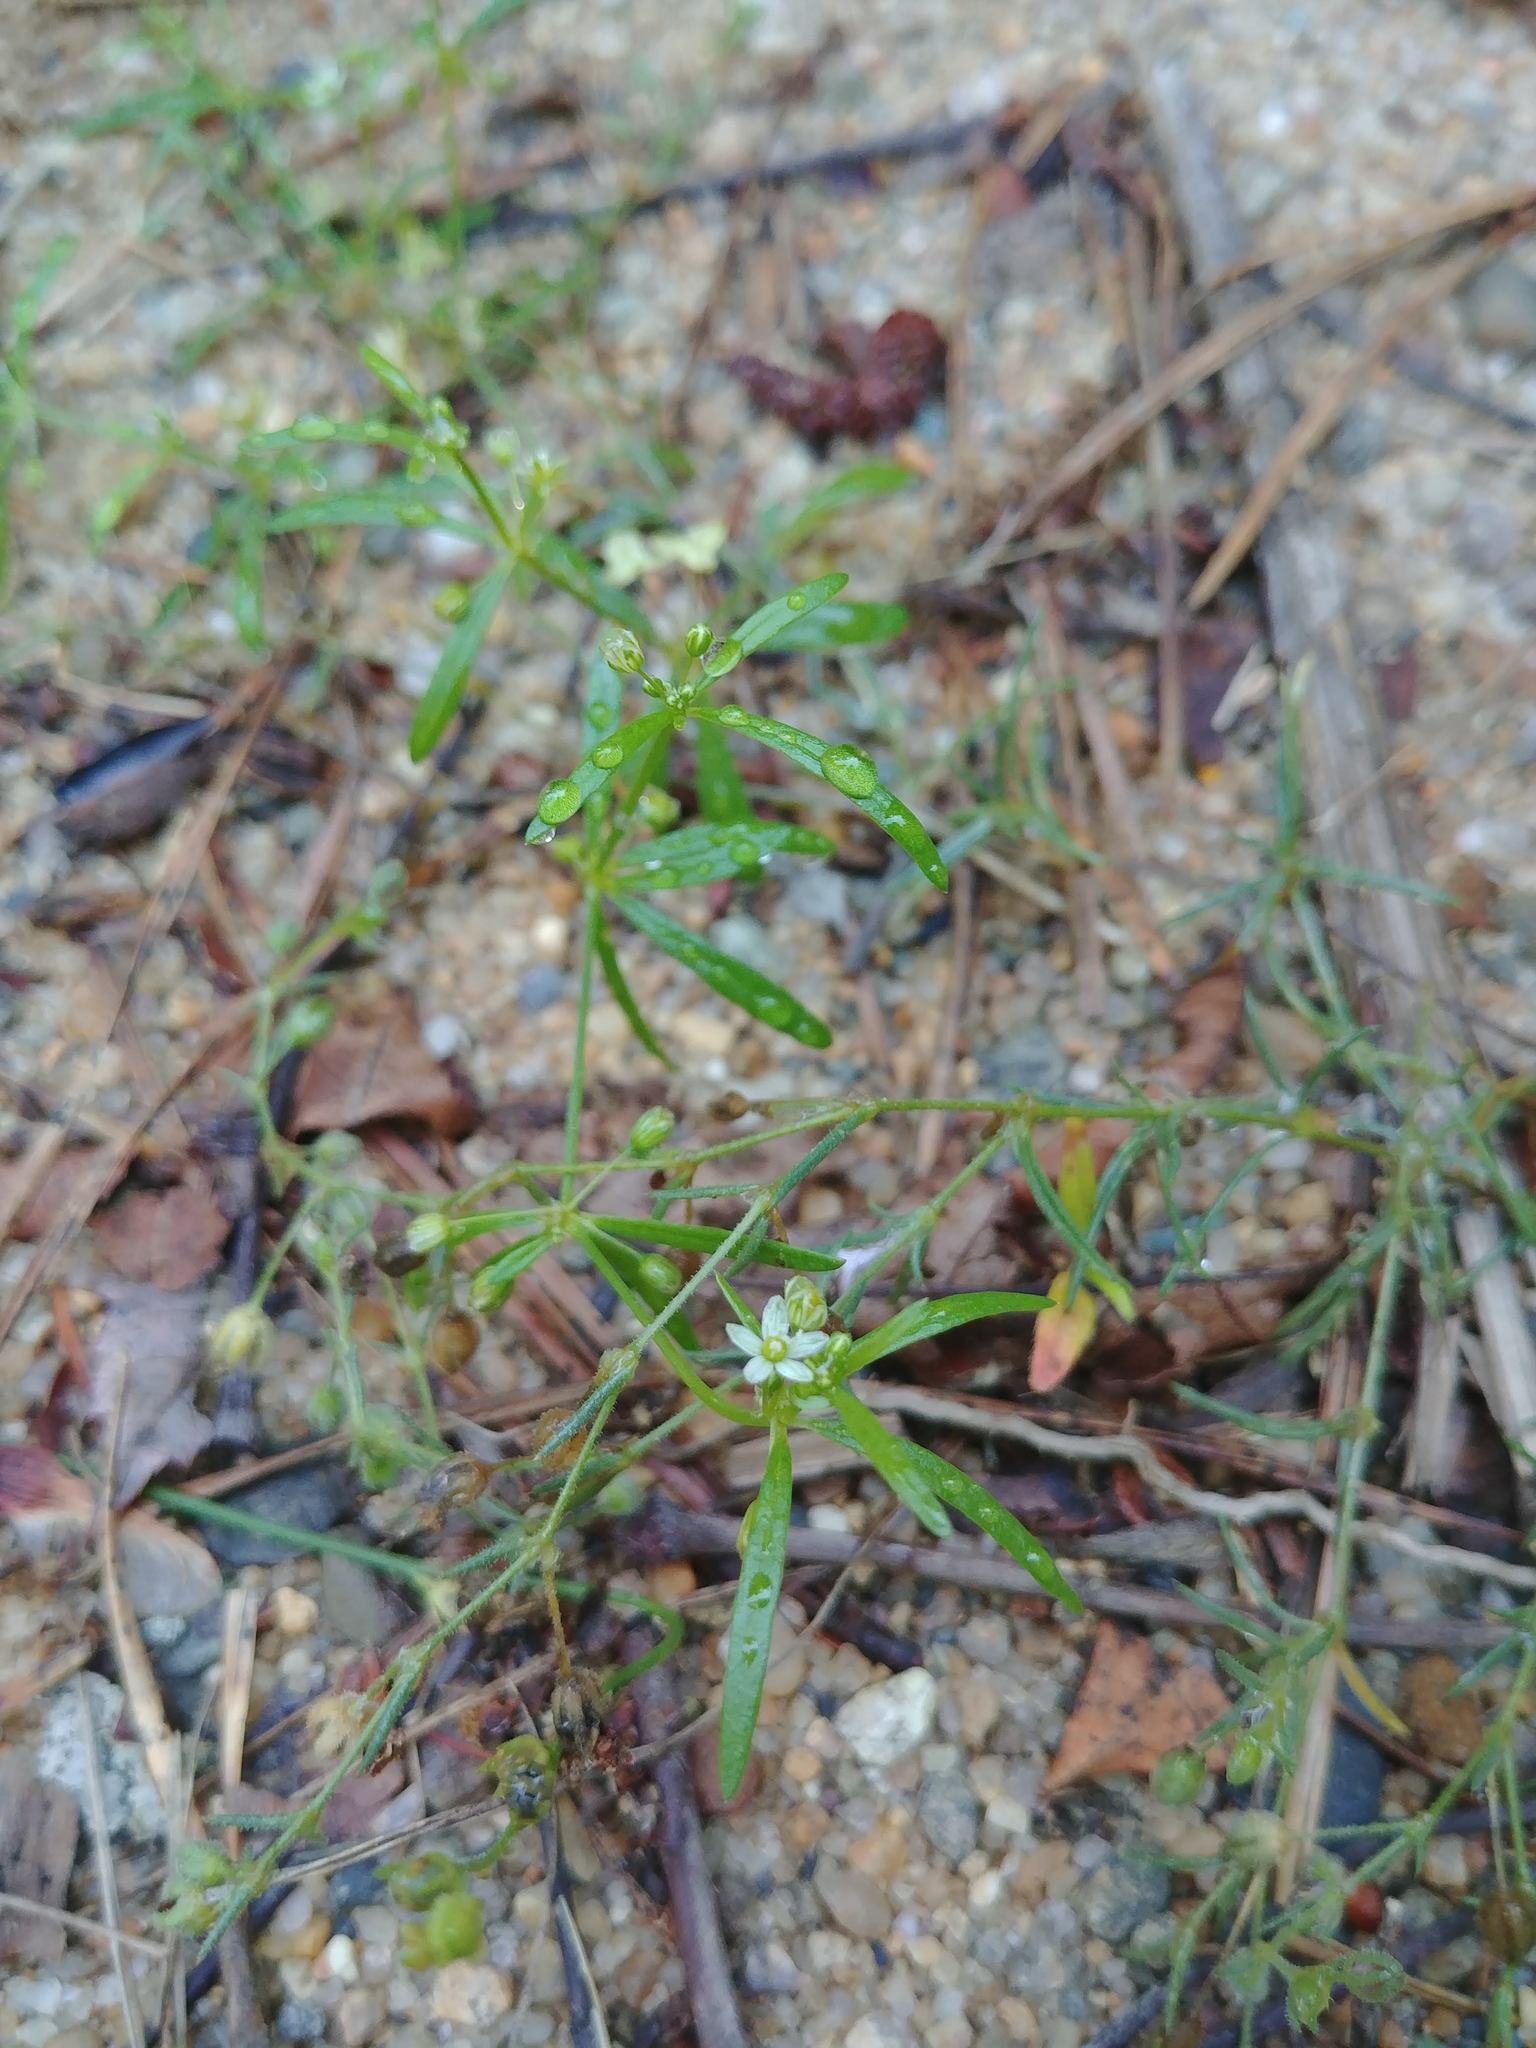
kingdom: Plantae
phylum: Tracheophyta
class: Magnoliopsida
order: Caryophyllales
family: Molluginaceae
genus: Mollugo
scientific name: Mollugo verticillata
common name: Green carpetweed
